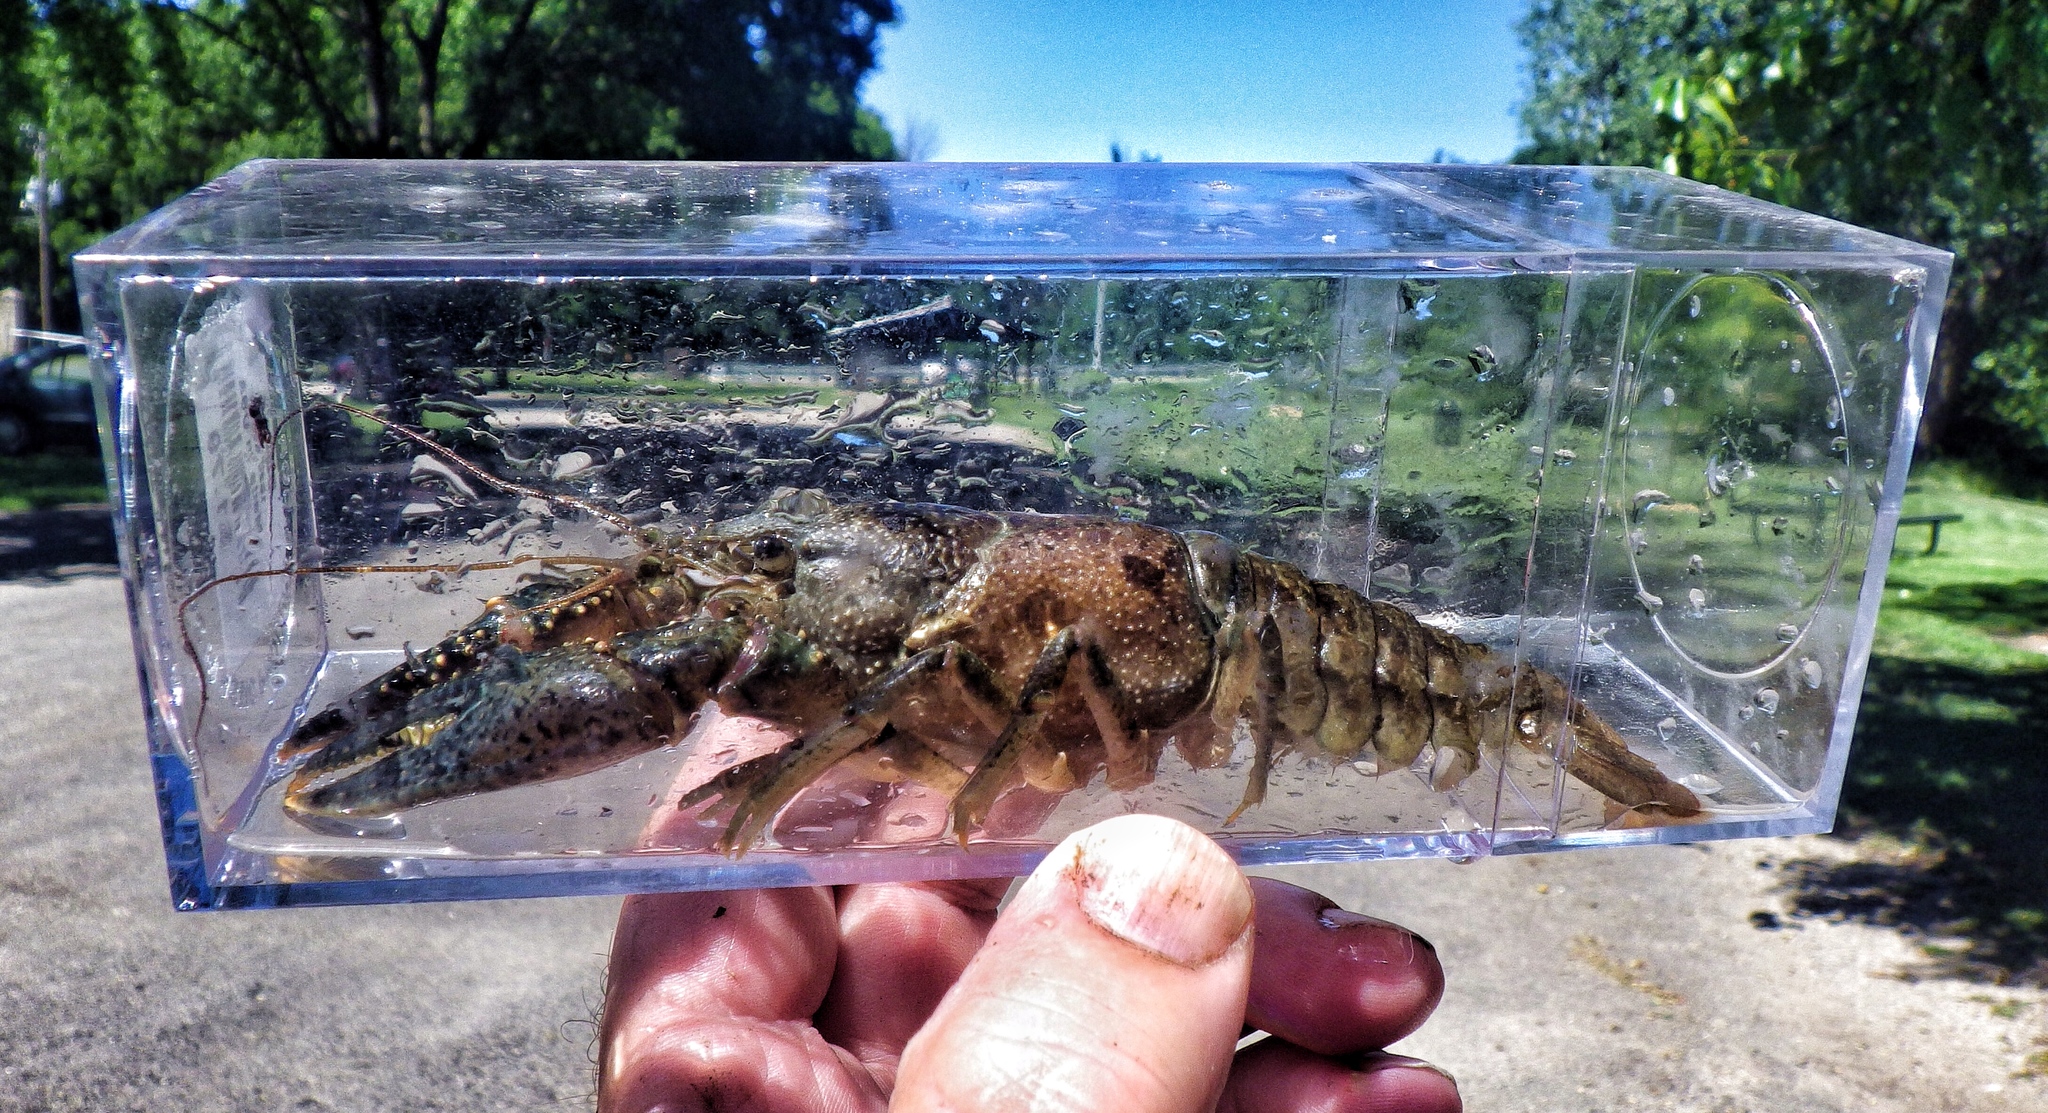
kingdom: Animalia
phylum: Arthropoda
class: Malacostraca
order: Decapoda
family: Cambaridae
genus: Faxonius
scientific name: Faxonius virilis
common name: Virile crayfish
